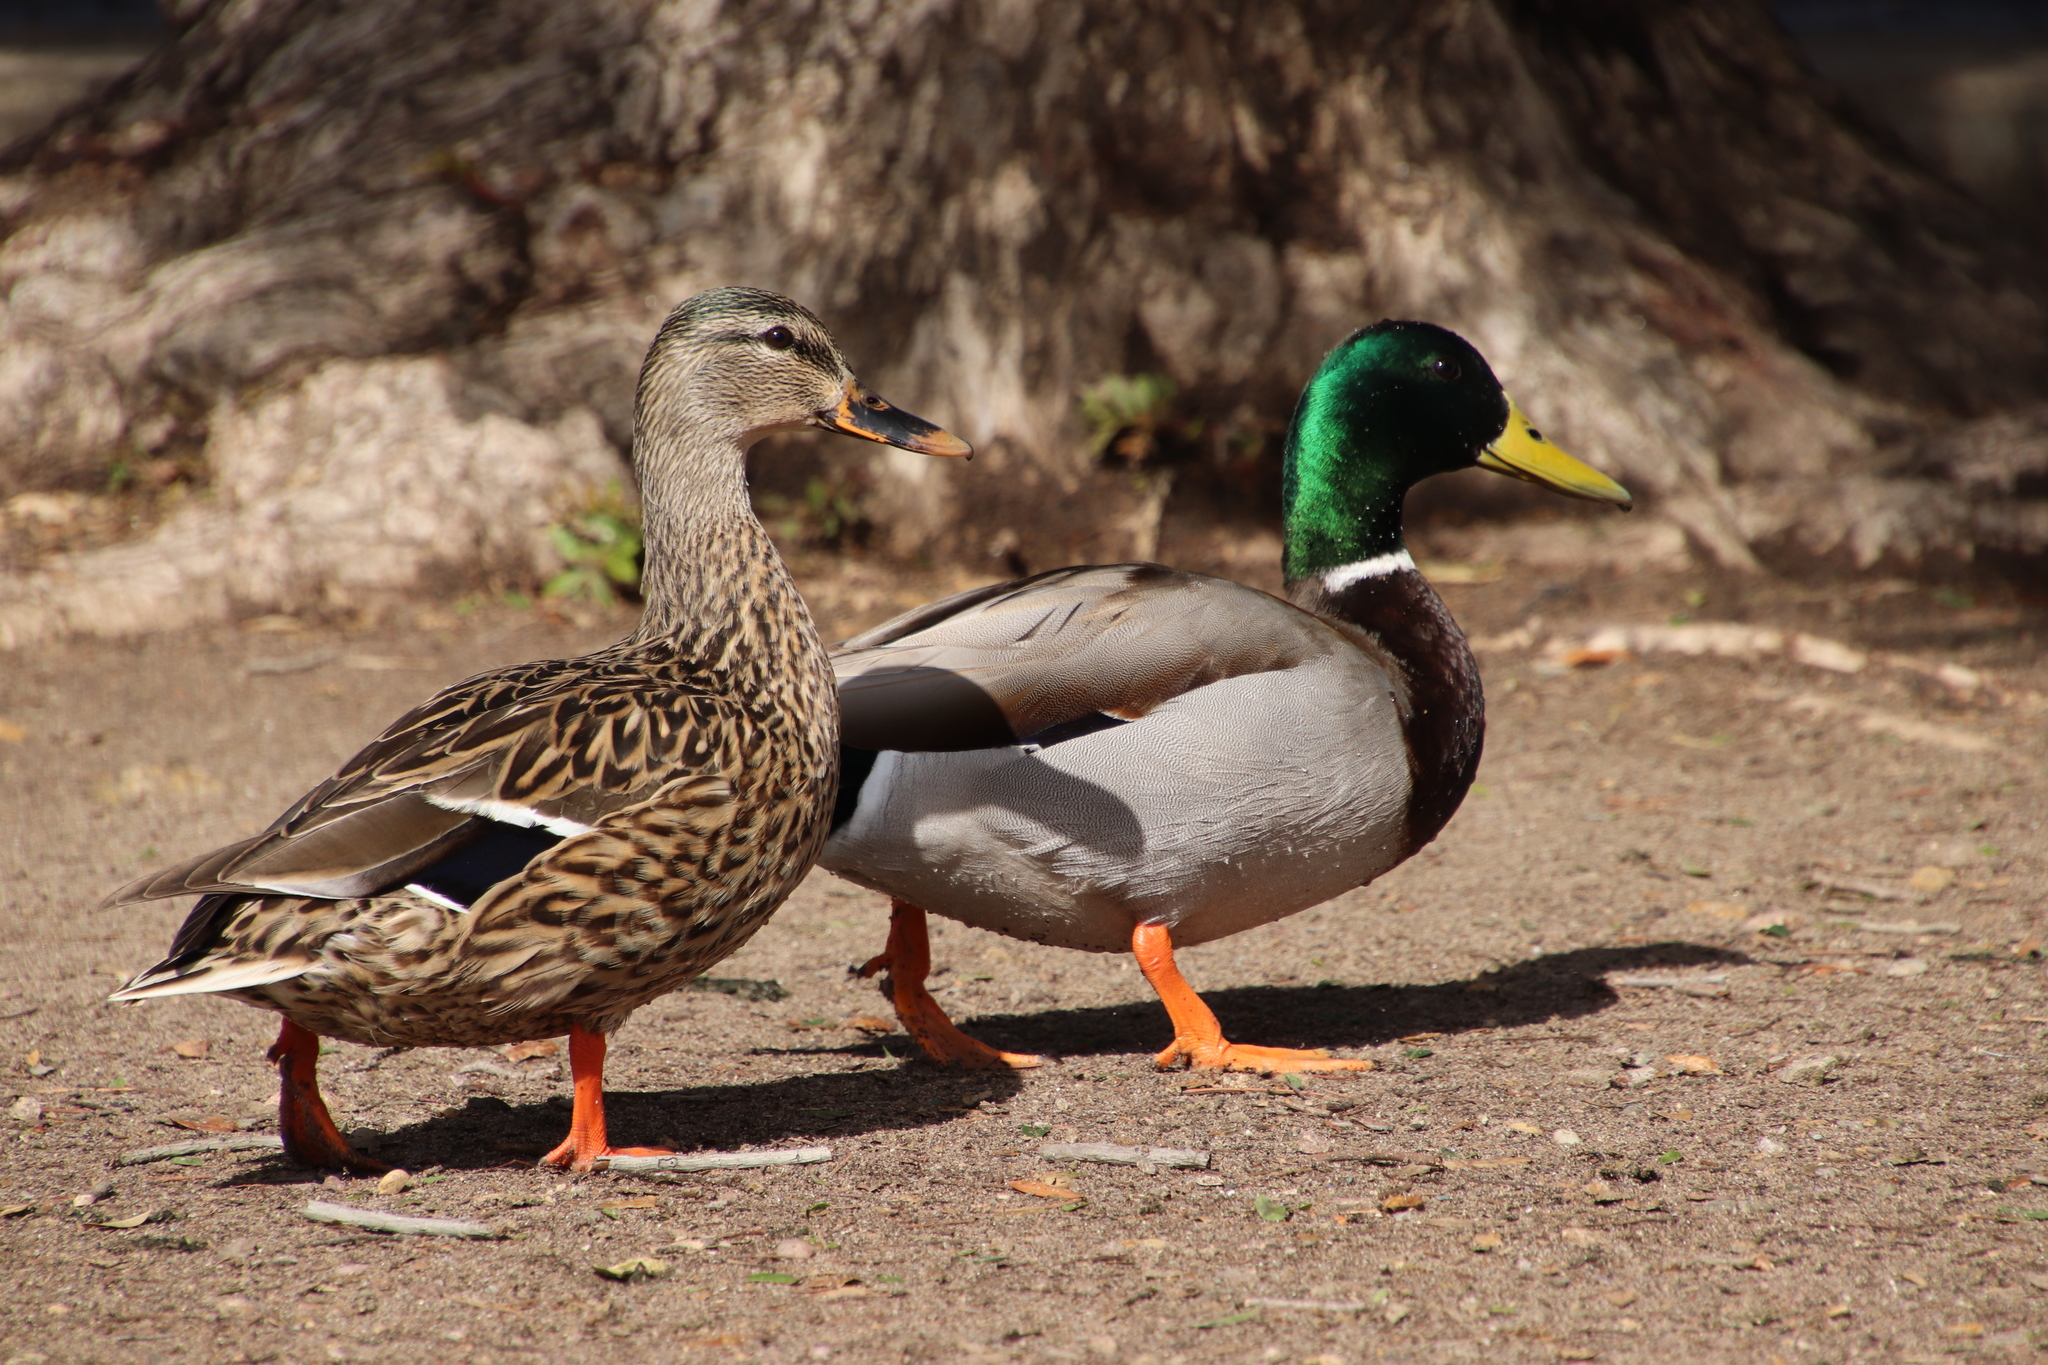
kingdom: Animalia
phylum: Chordata
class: Aves
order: Anseriformes
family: Anatidae
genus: Anas
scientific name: Anas platyrhynchos
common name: Mallard
